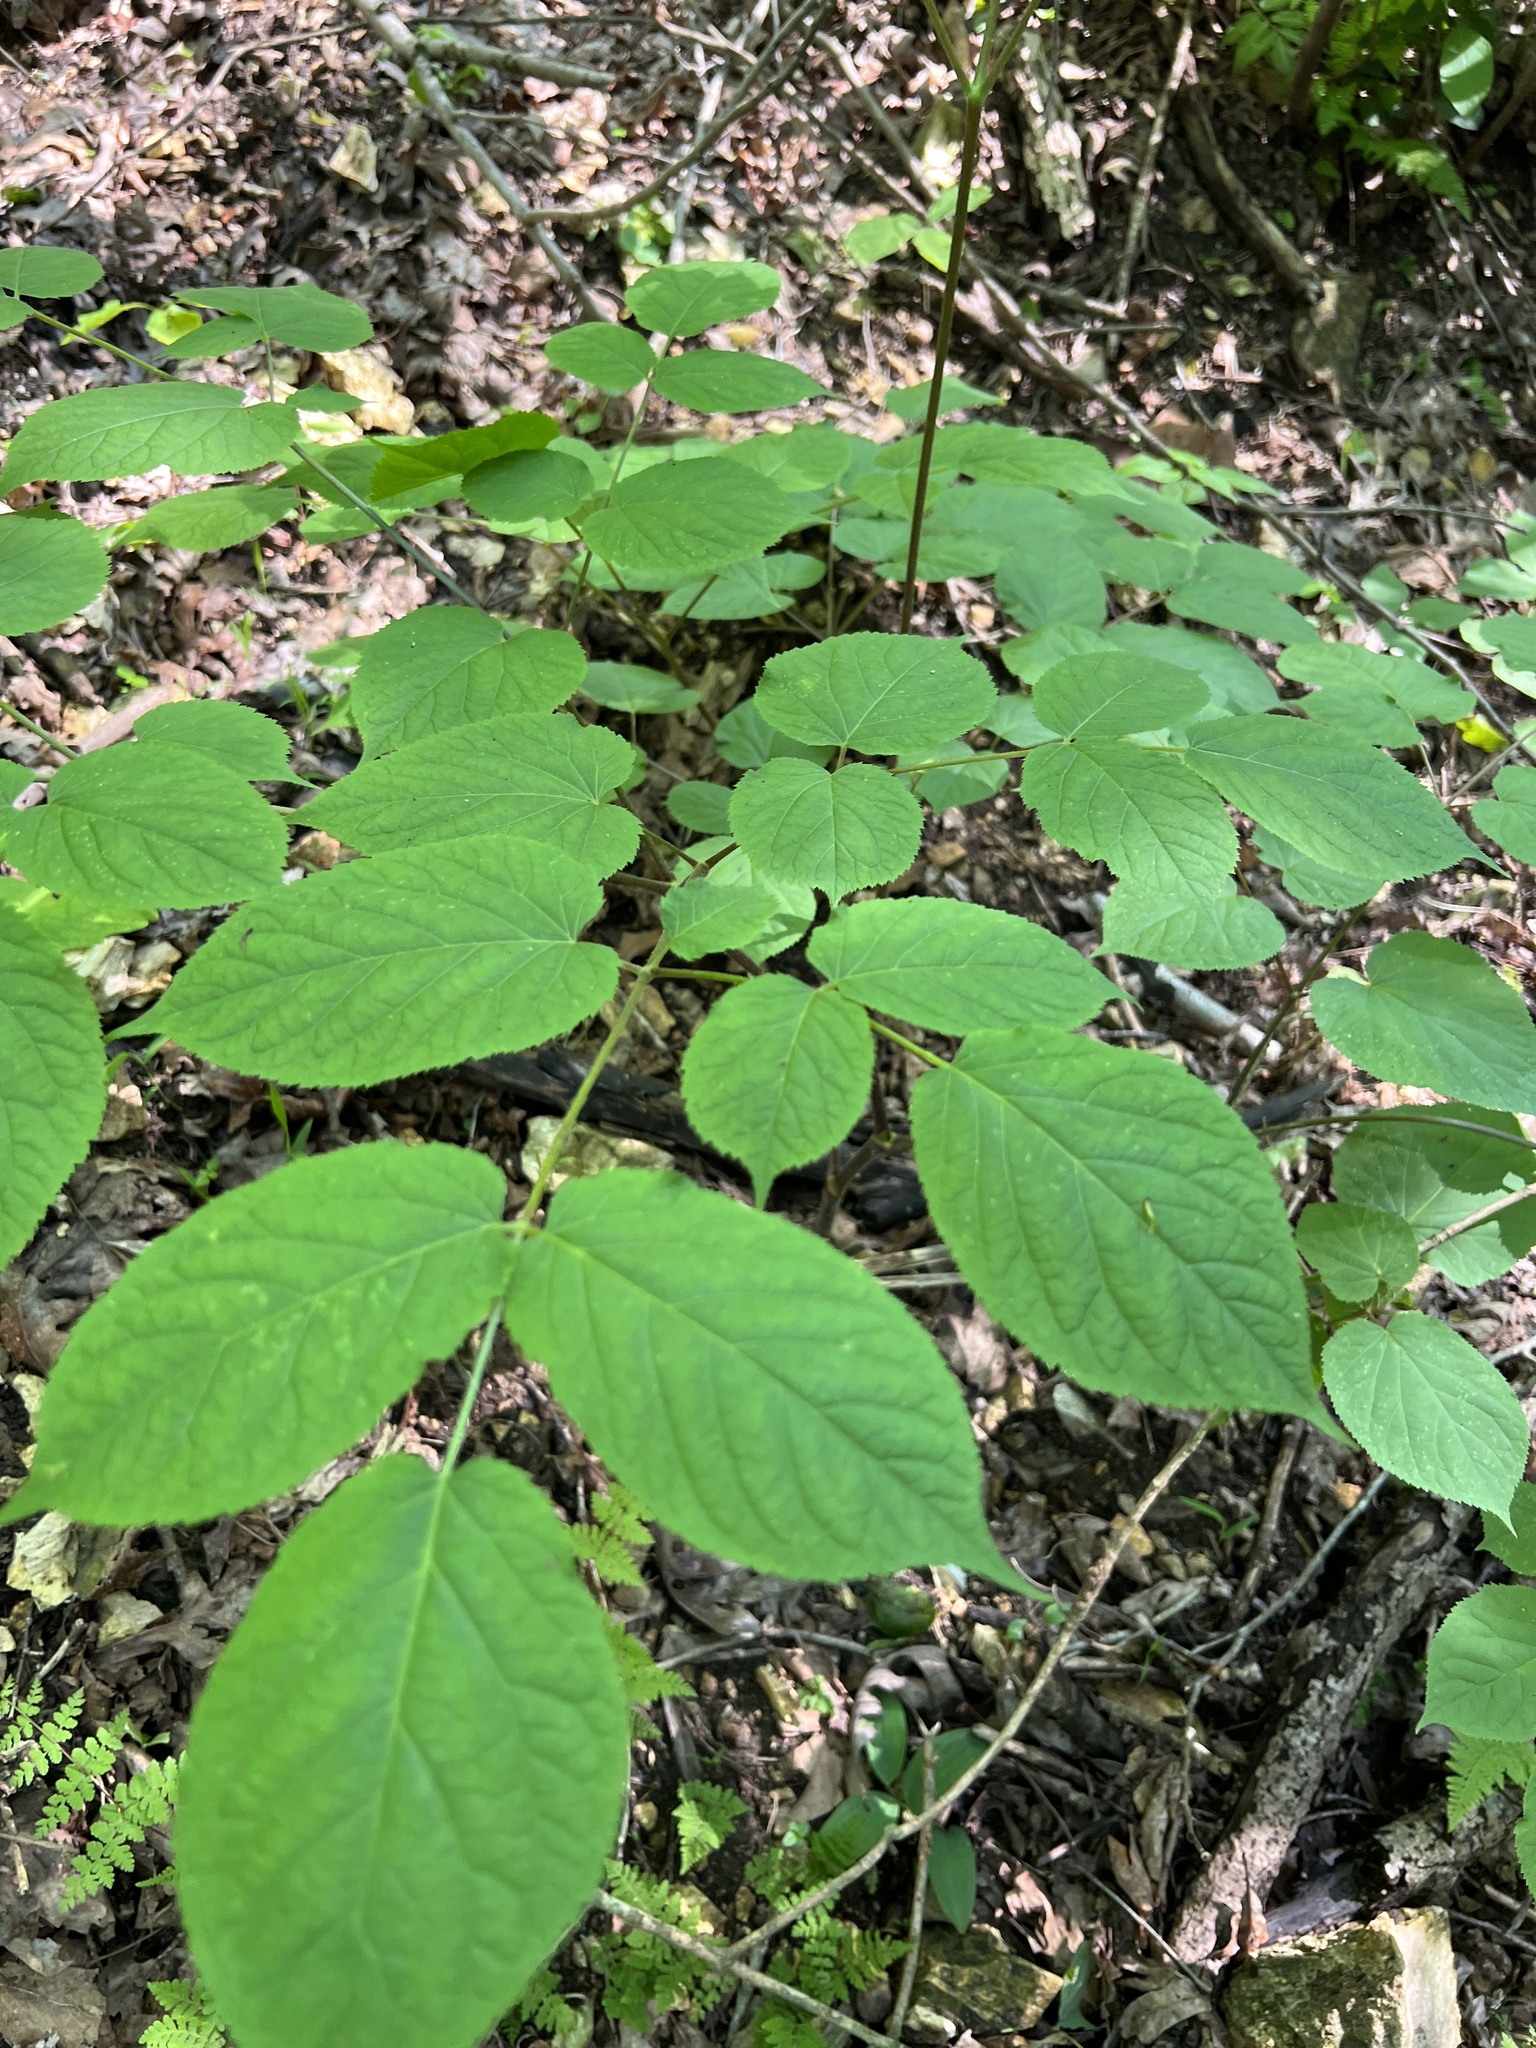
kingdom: Plantae
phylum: Tracheophyta
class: Magnoliopsida
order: Apiales
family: Araliaceae
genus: Aralia
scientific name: Aralia racemosa
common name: American-spikenard
